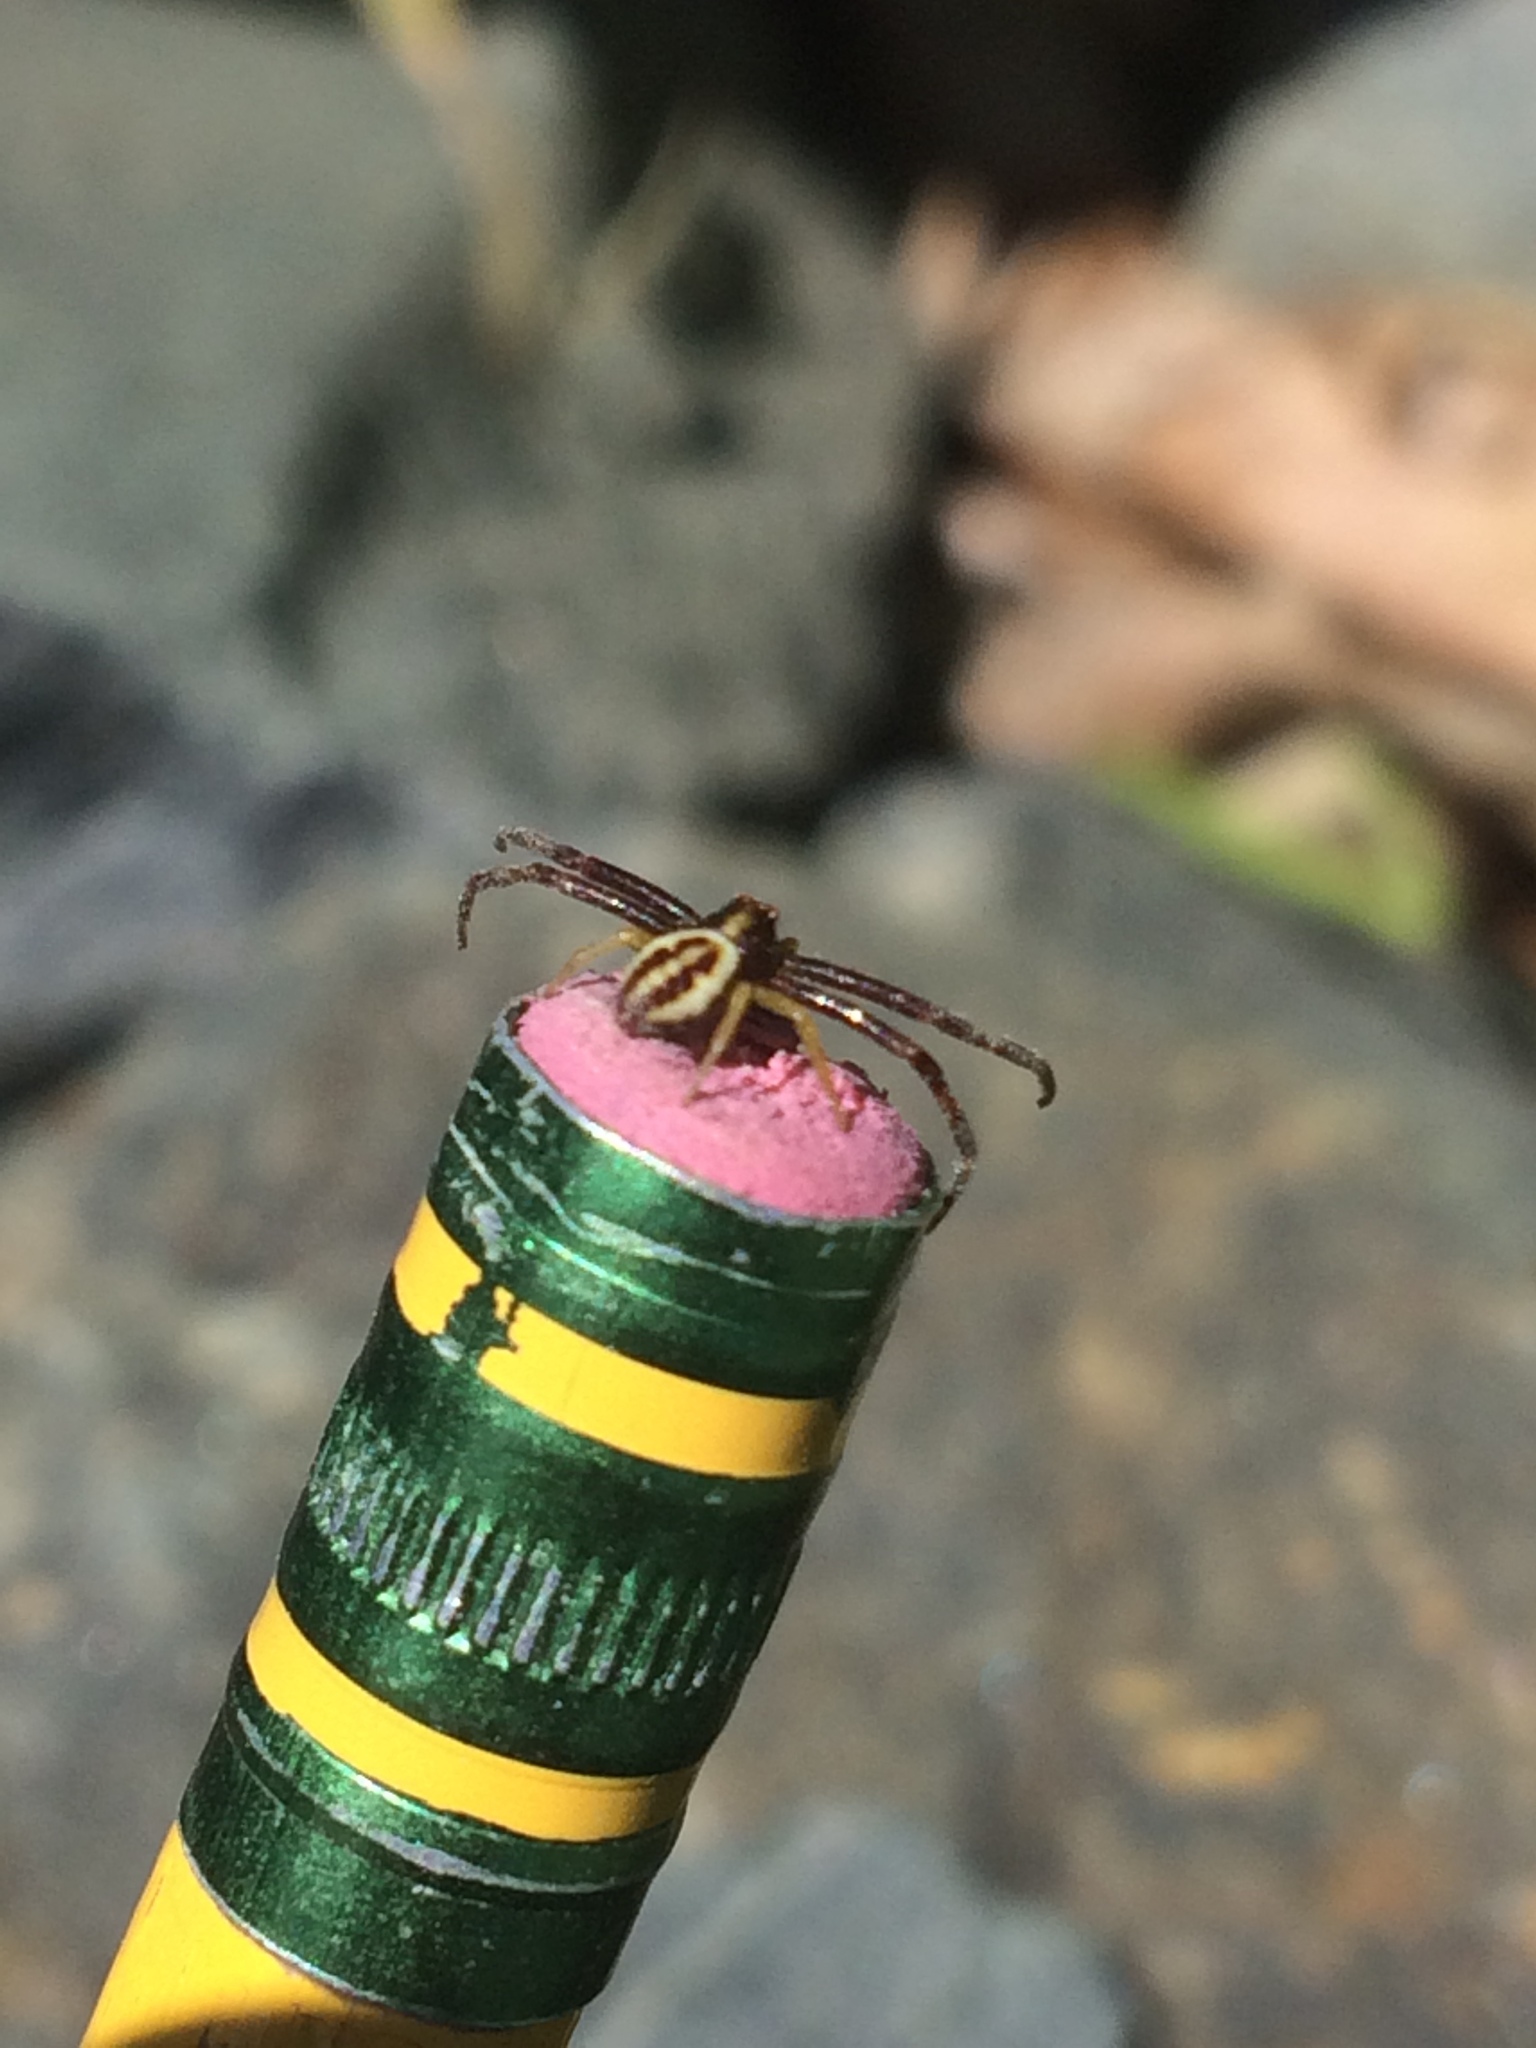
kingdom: Animalia
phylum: Arthropoda
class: Arachnida
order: Araneae
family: Thomisidae
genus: Misumena
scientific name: Misumena vatia
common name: Goldenrod crab spider
